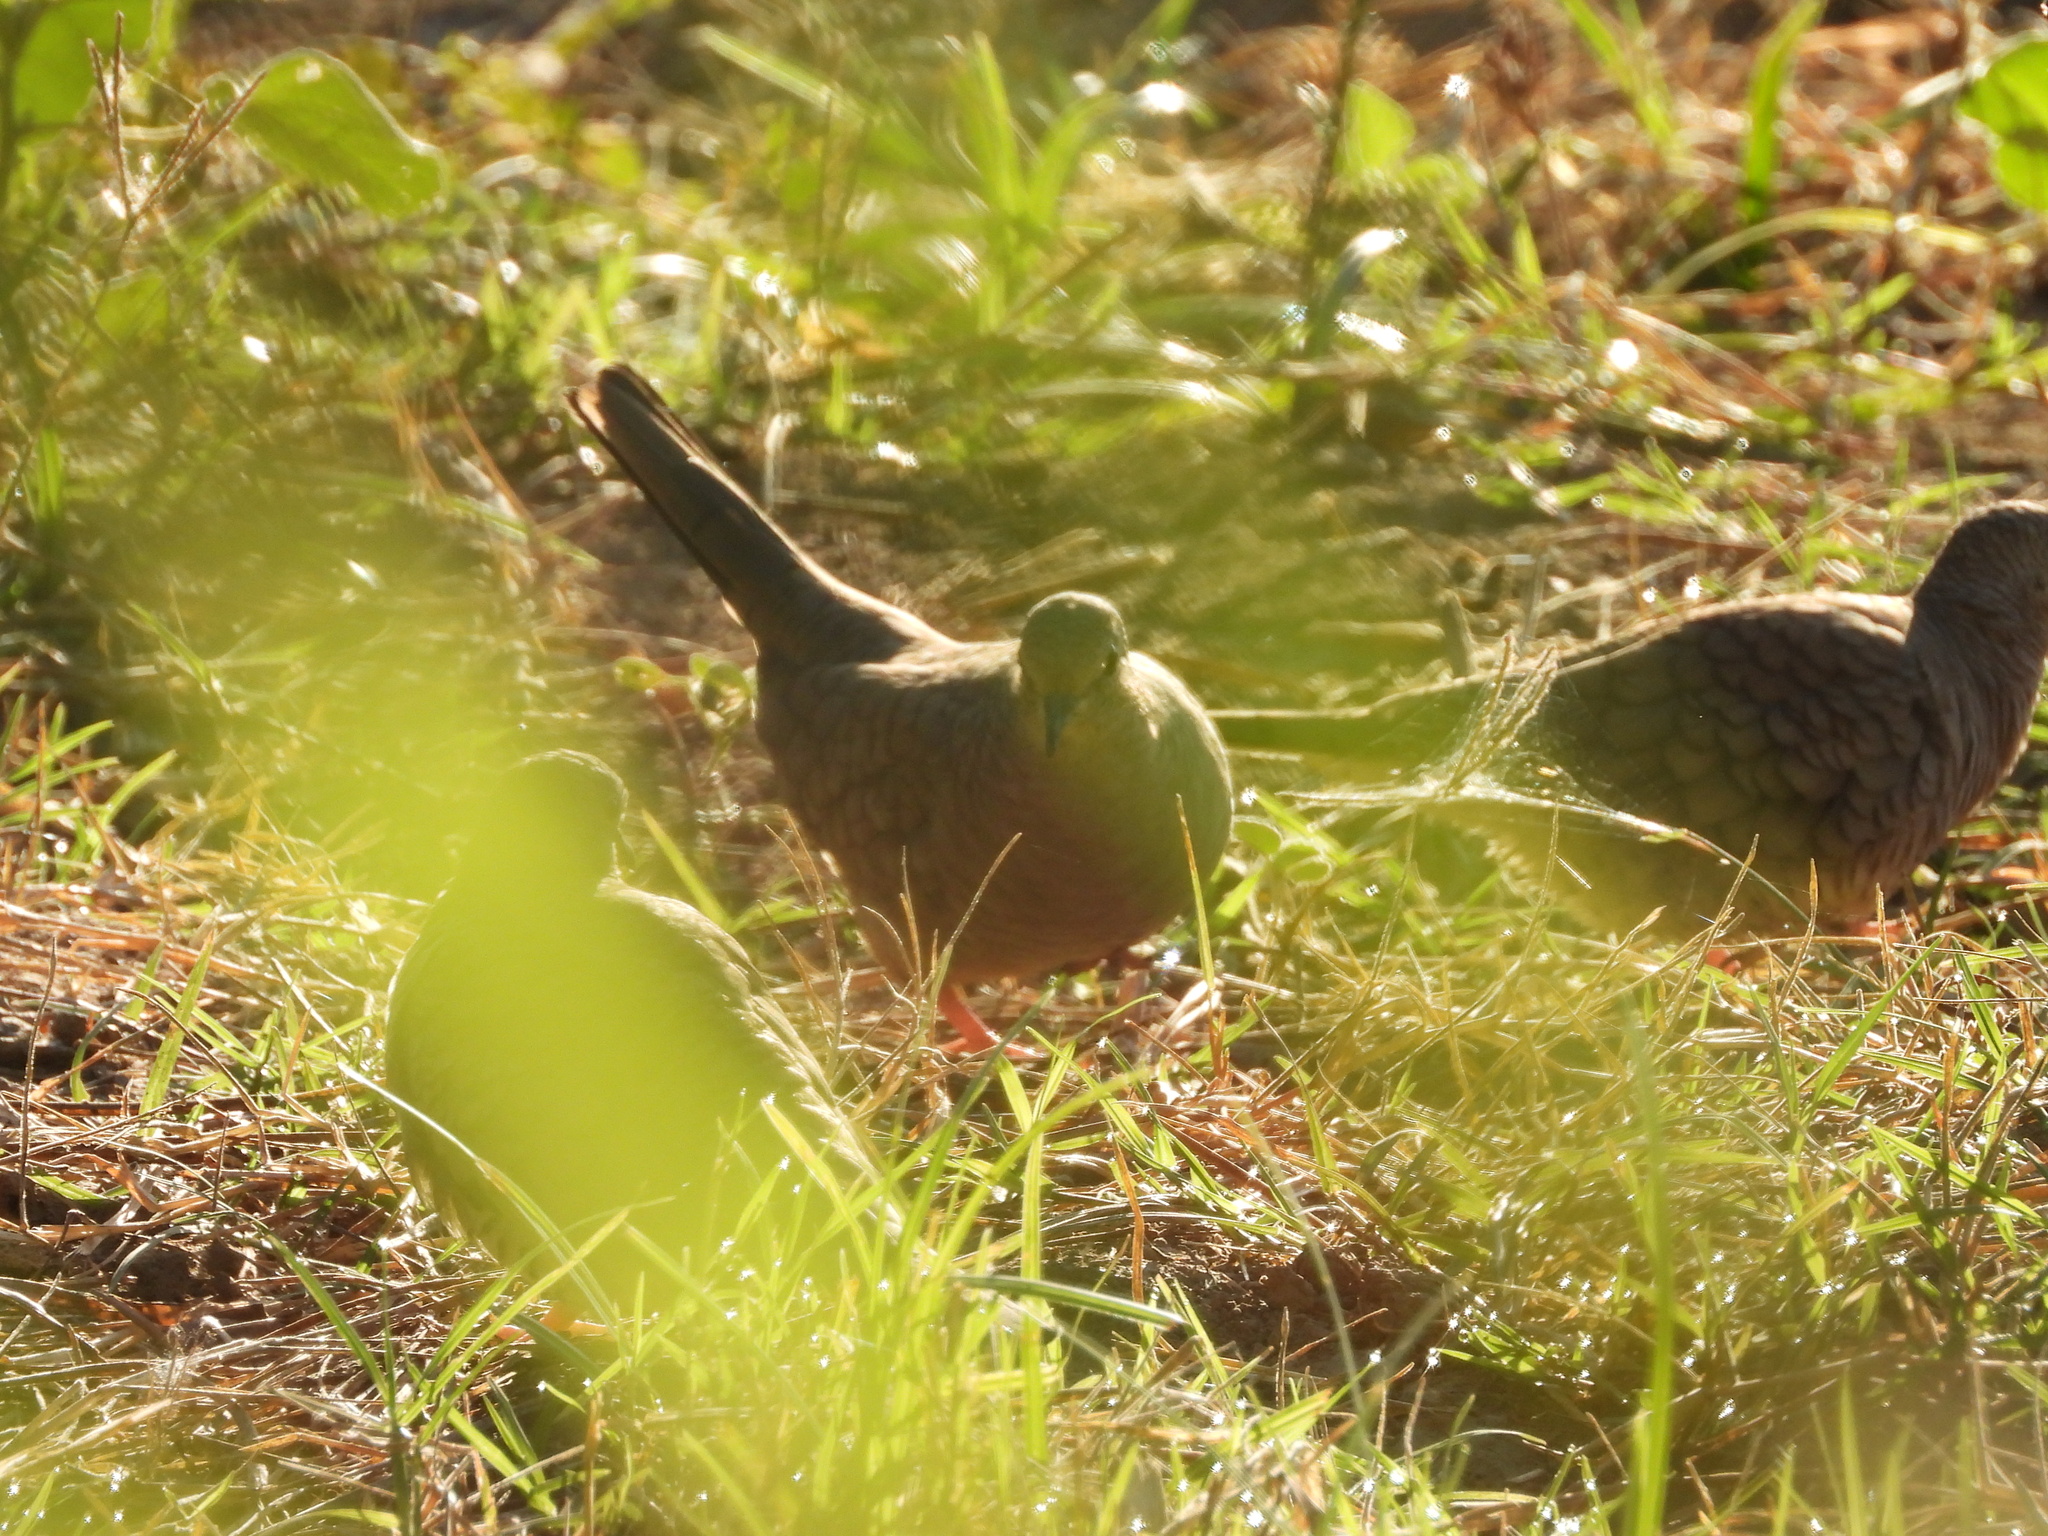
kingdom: Animalia
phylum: Chordata
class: Aves
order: Columbiformes
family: Columbidae
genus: Columbina
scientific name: Columbina inca
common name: Inca dove
